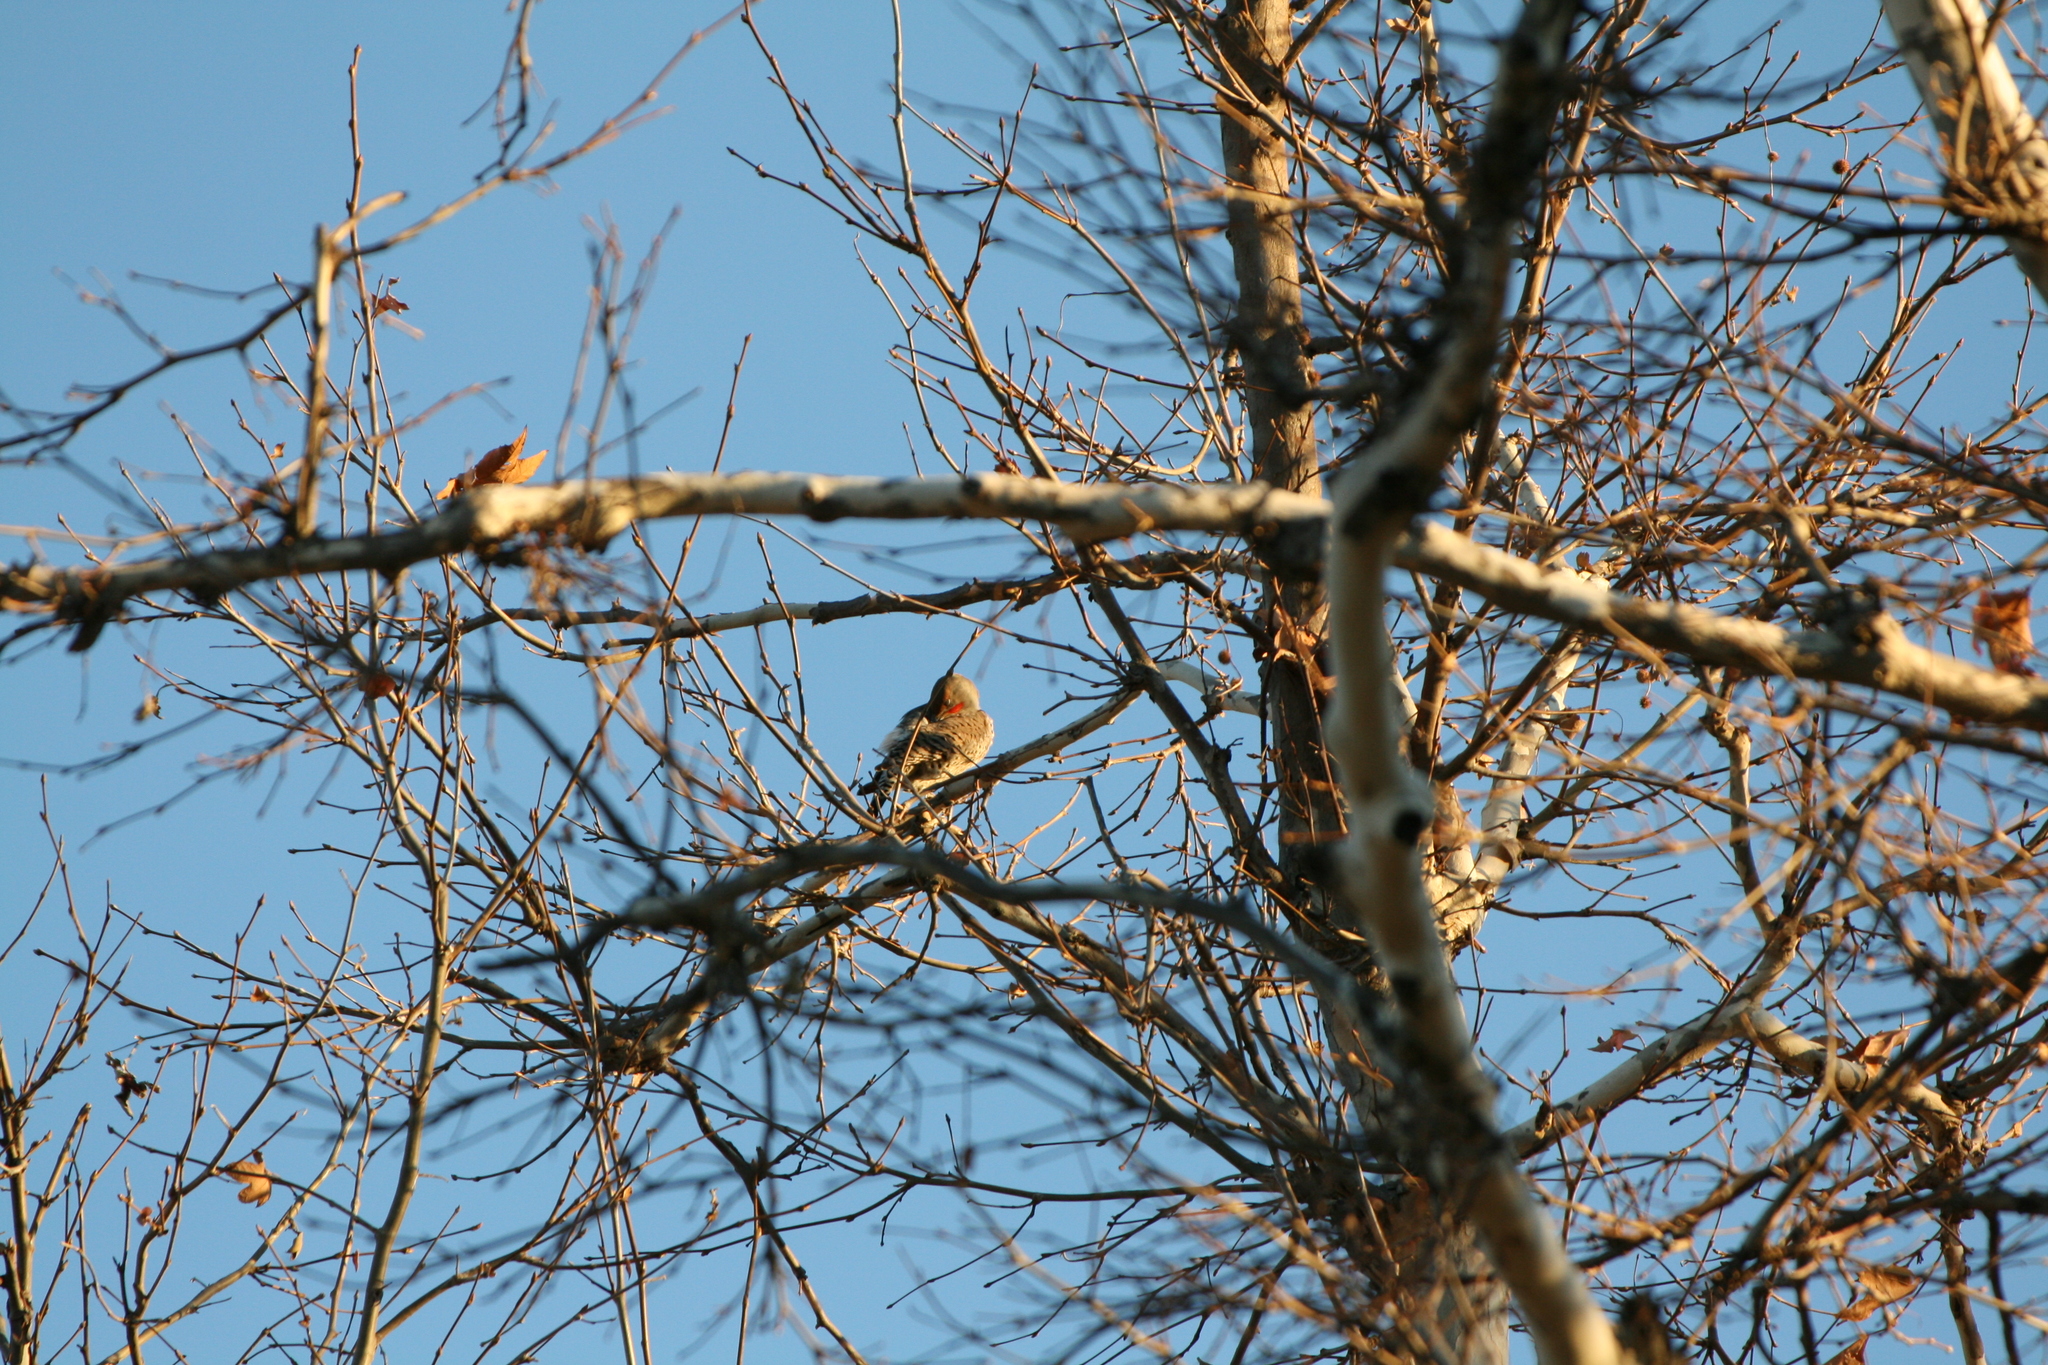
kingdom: Animalia
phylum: Chordata
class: Aves
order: Piciformes
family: Picidae
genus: Colaptes
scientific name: Colaptes auratus
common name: Northern flicker
